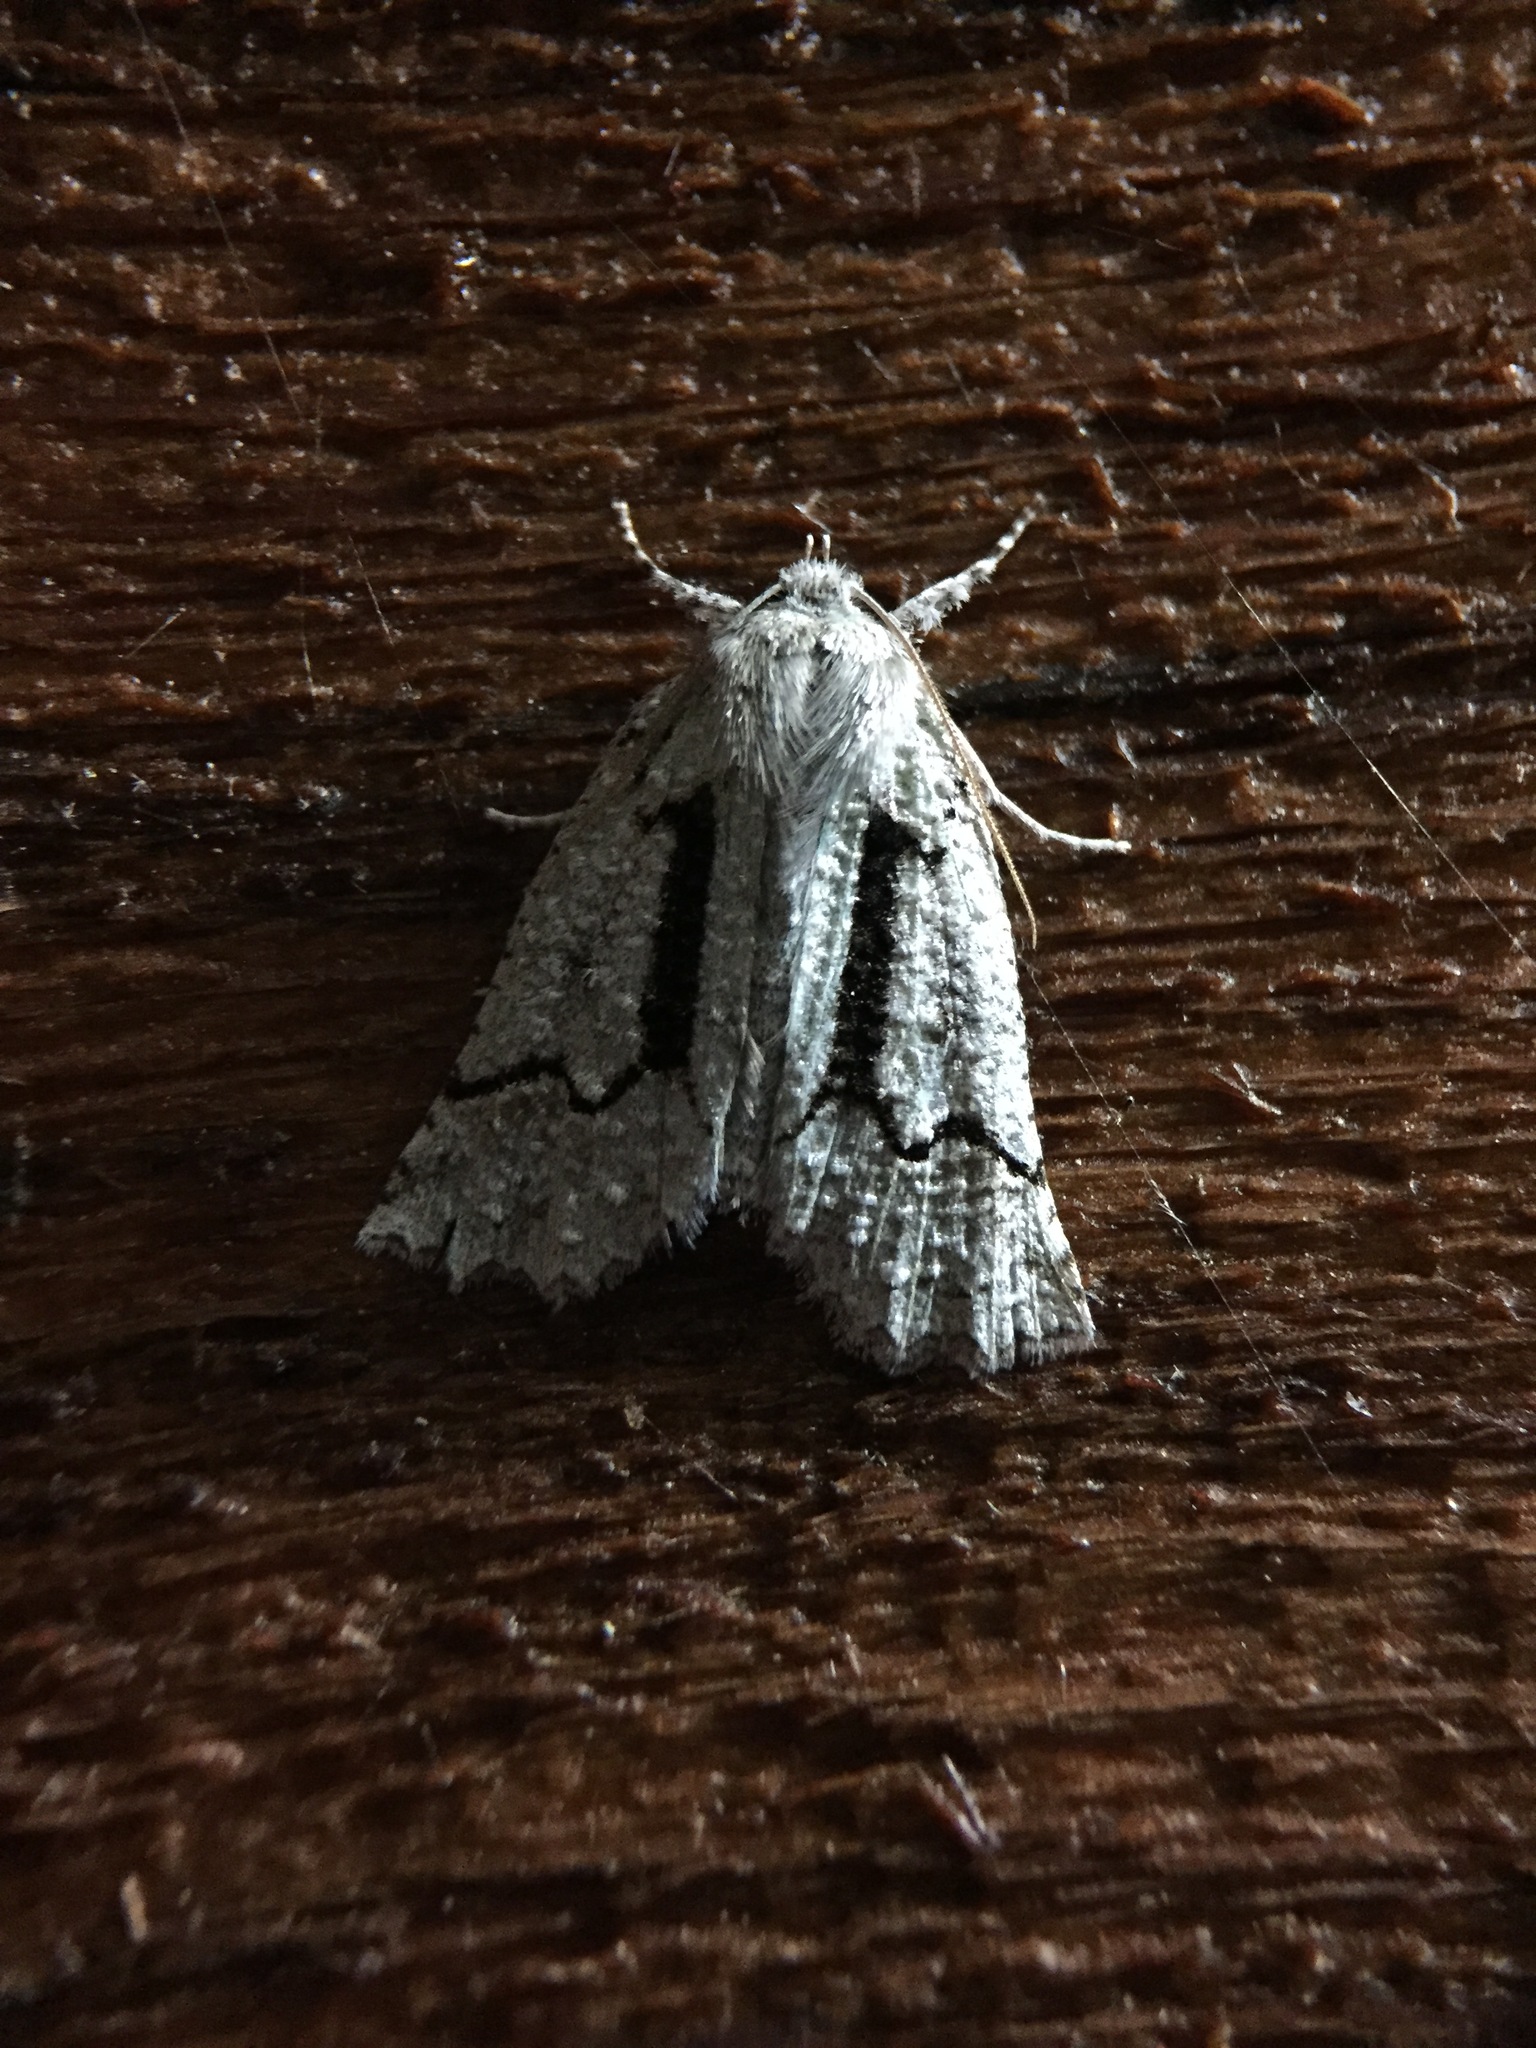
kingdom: Animalia
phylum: Arthropoda
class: Insecta
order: Lepidoptera
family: Geometridae
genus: Declana
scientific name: Declana floccosa
